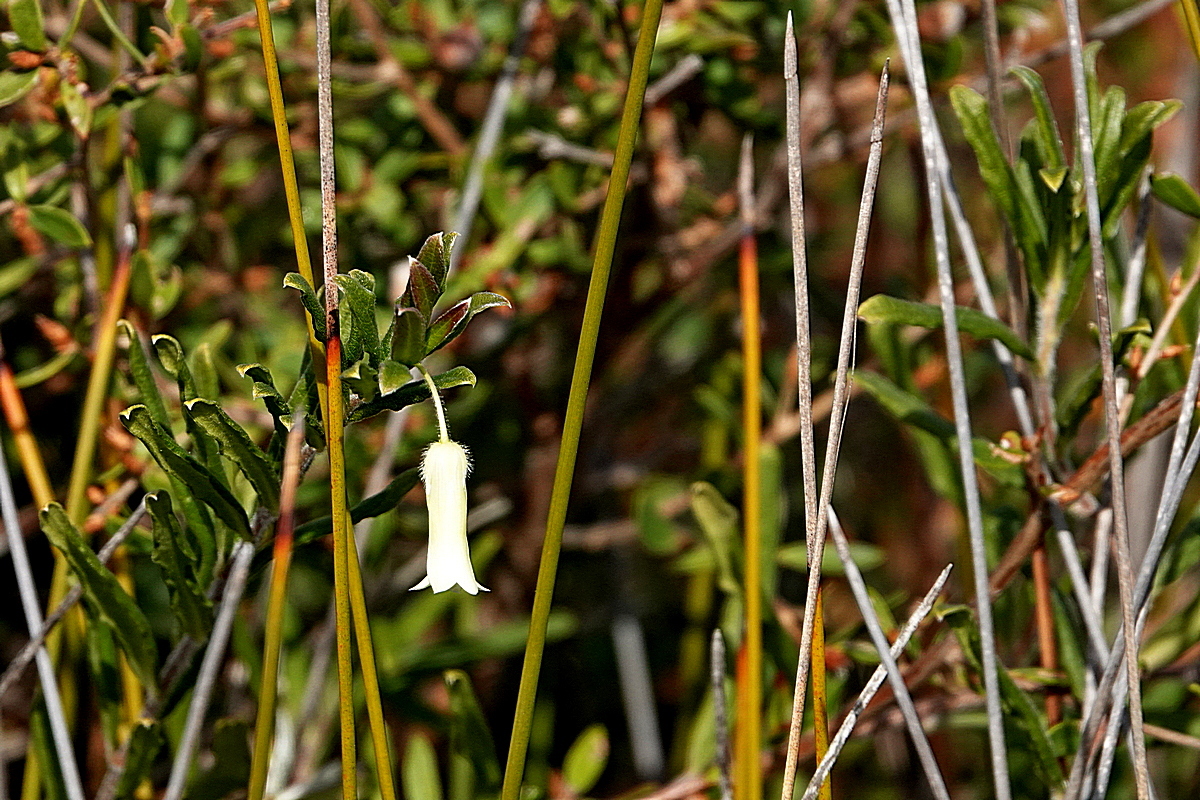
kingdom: Plantae
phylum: Tracheophyta
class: Magnoliopsida
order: Apiales
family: Pittosporaceae
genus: Billardiera
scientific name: Billardiera mutabilis
